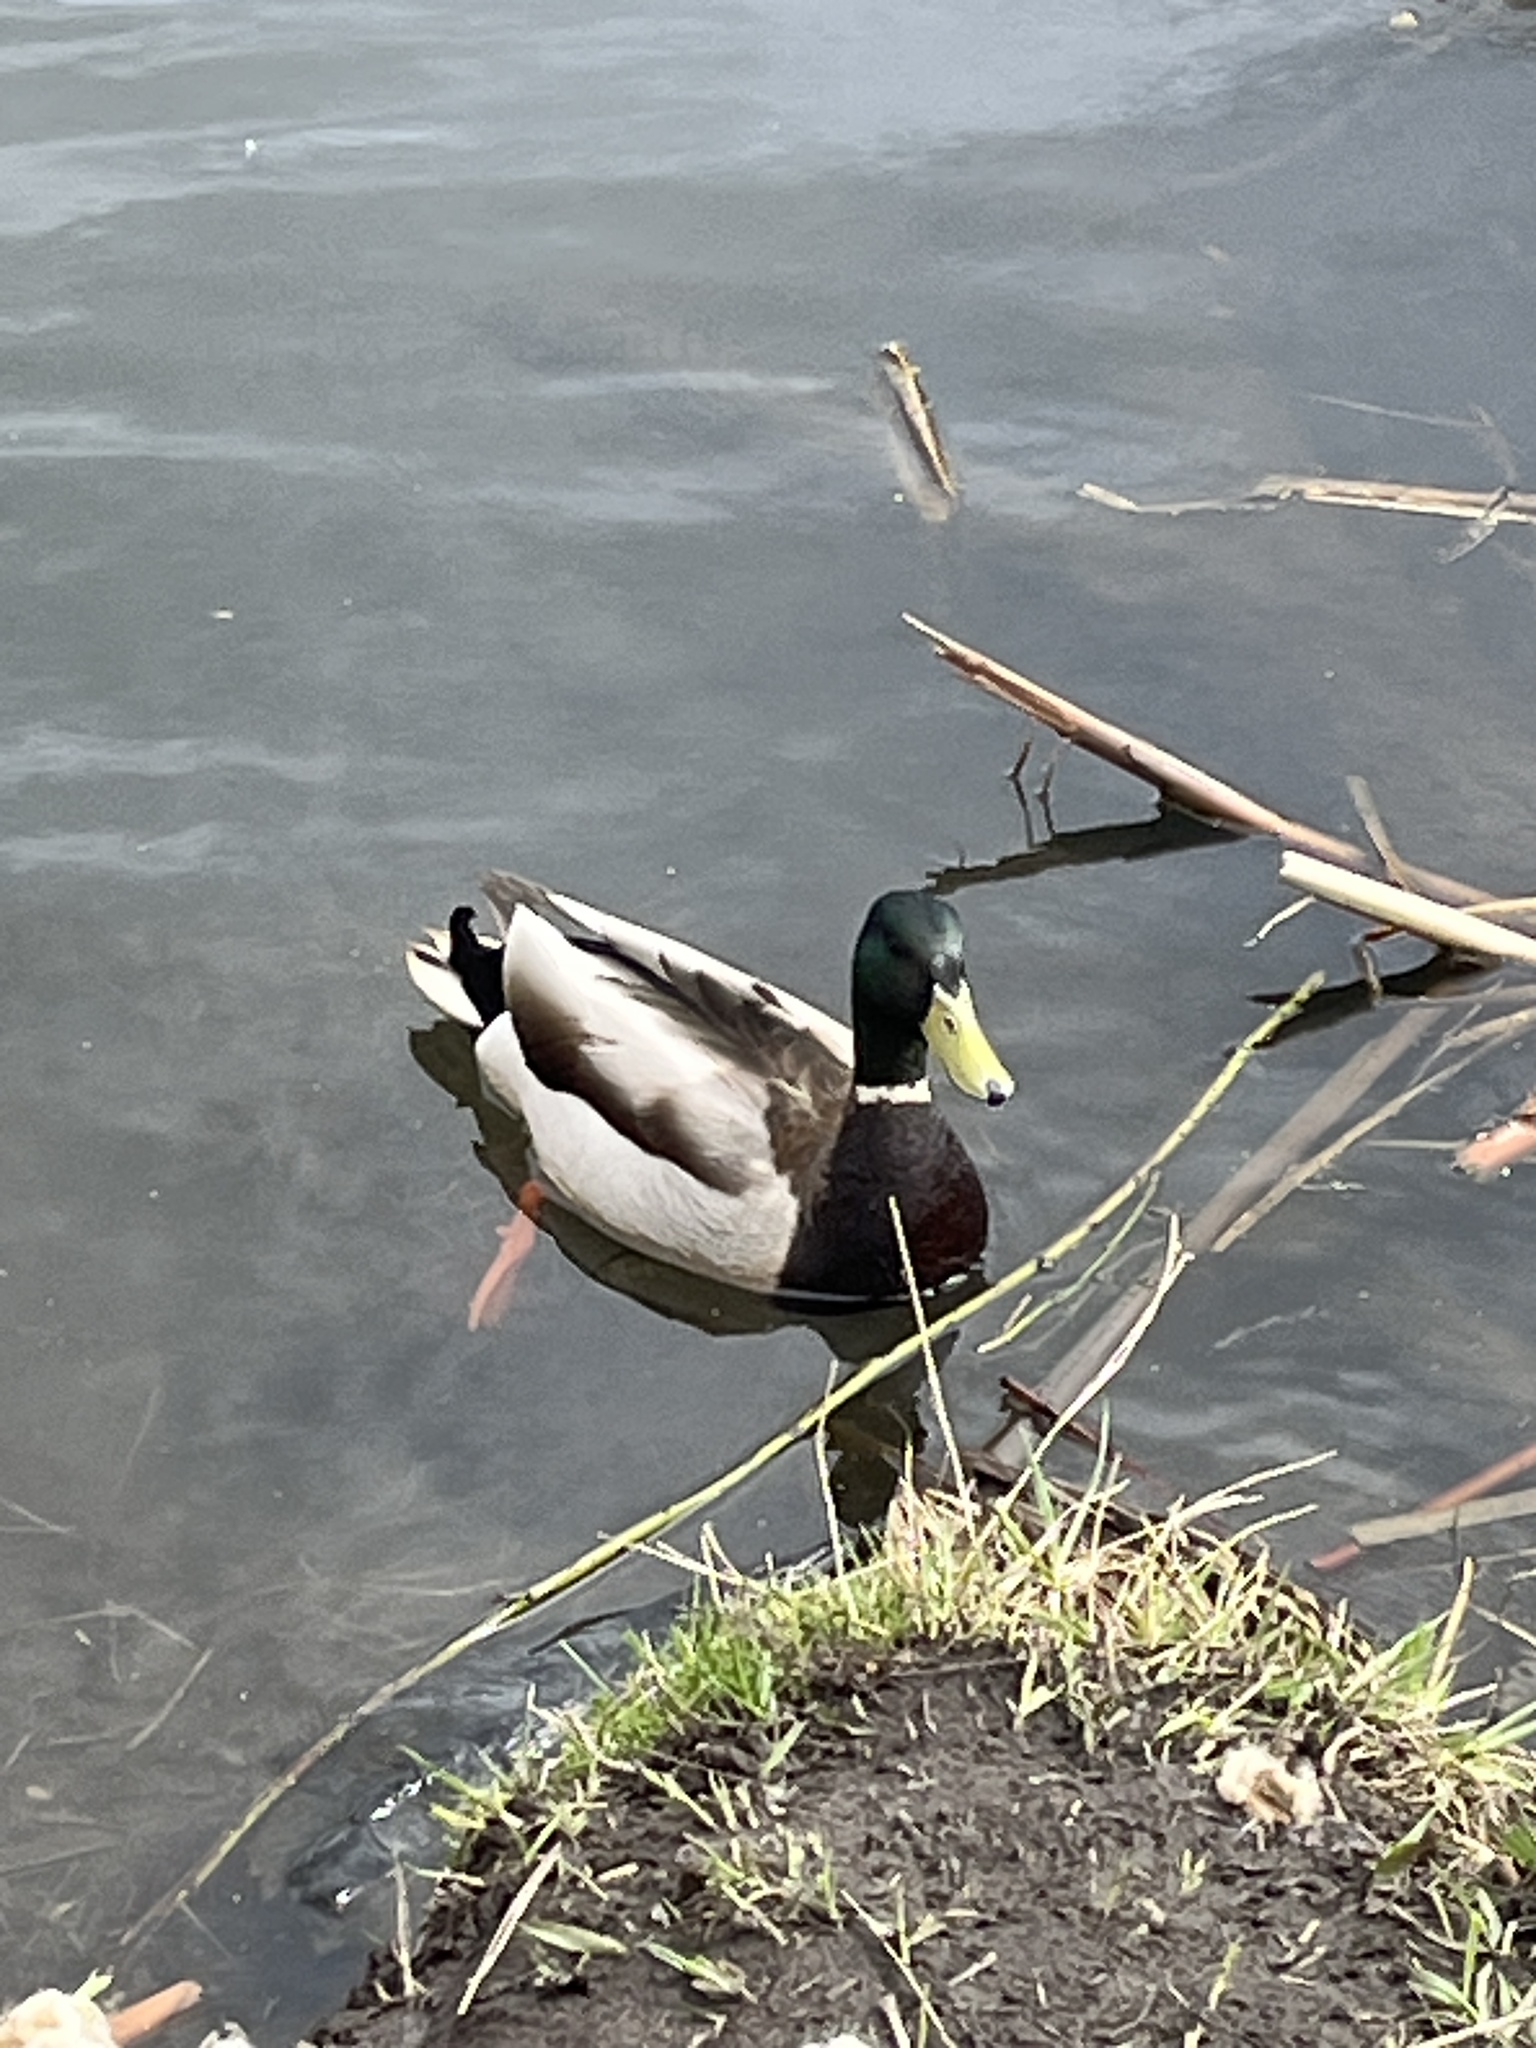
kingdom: Animalia
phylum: Chordata
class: Aves
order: Anseriformes
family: Anatidae
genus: Anas
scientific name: Anas platyrhynchos
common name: Mallard
